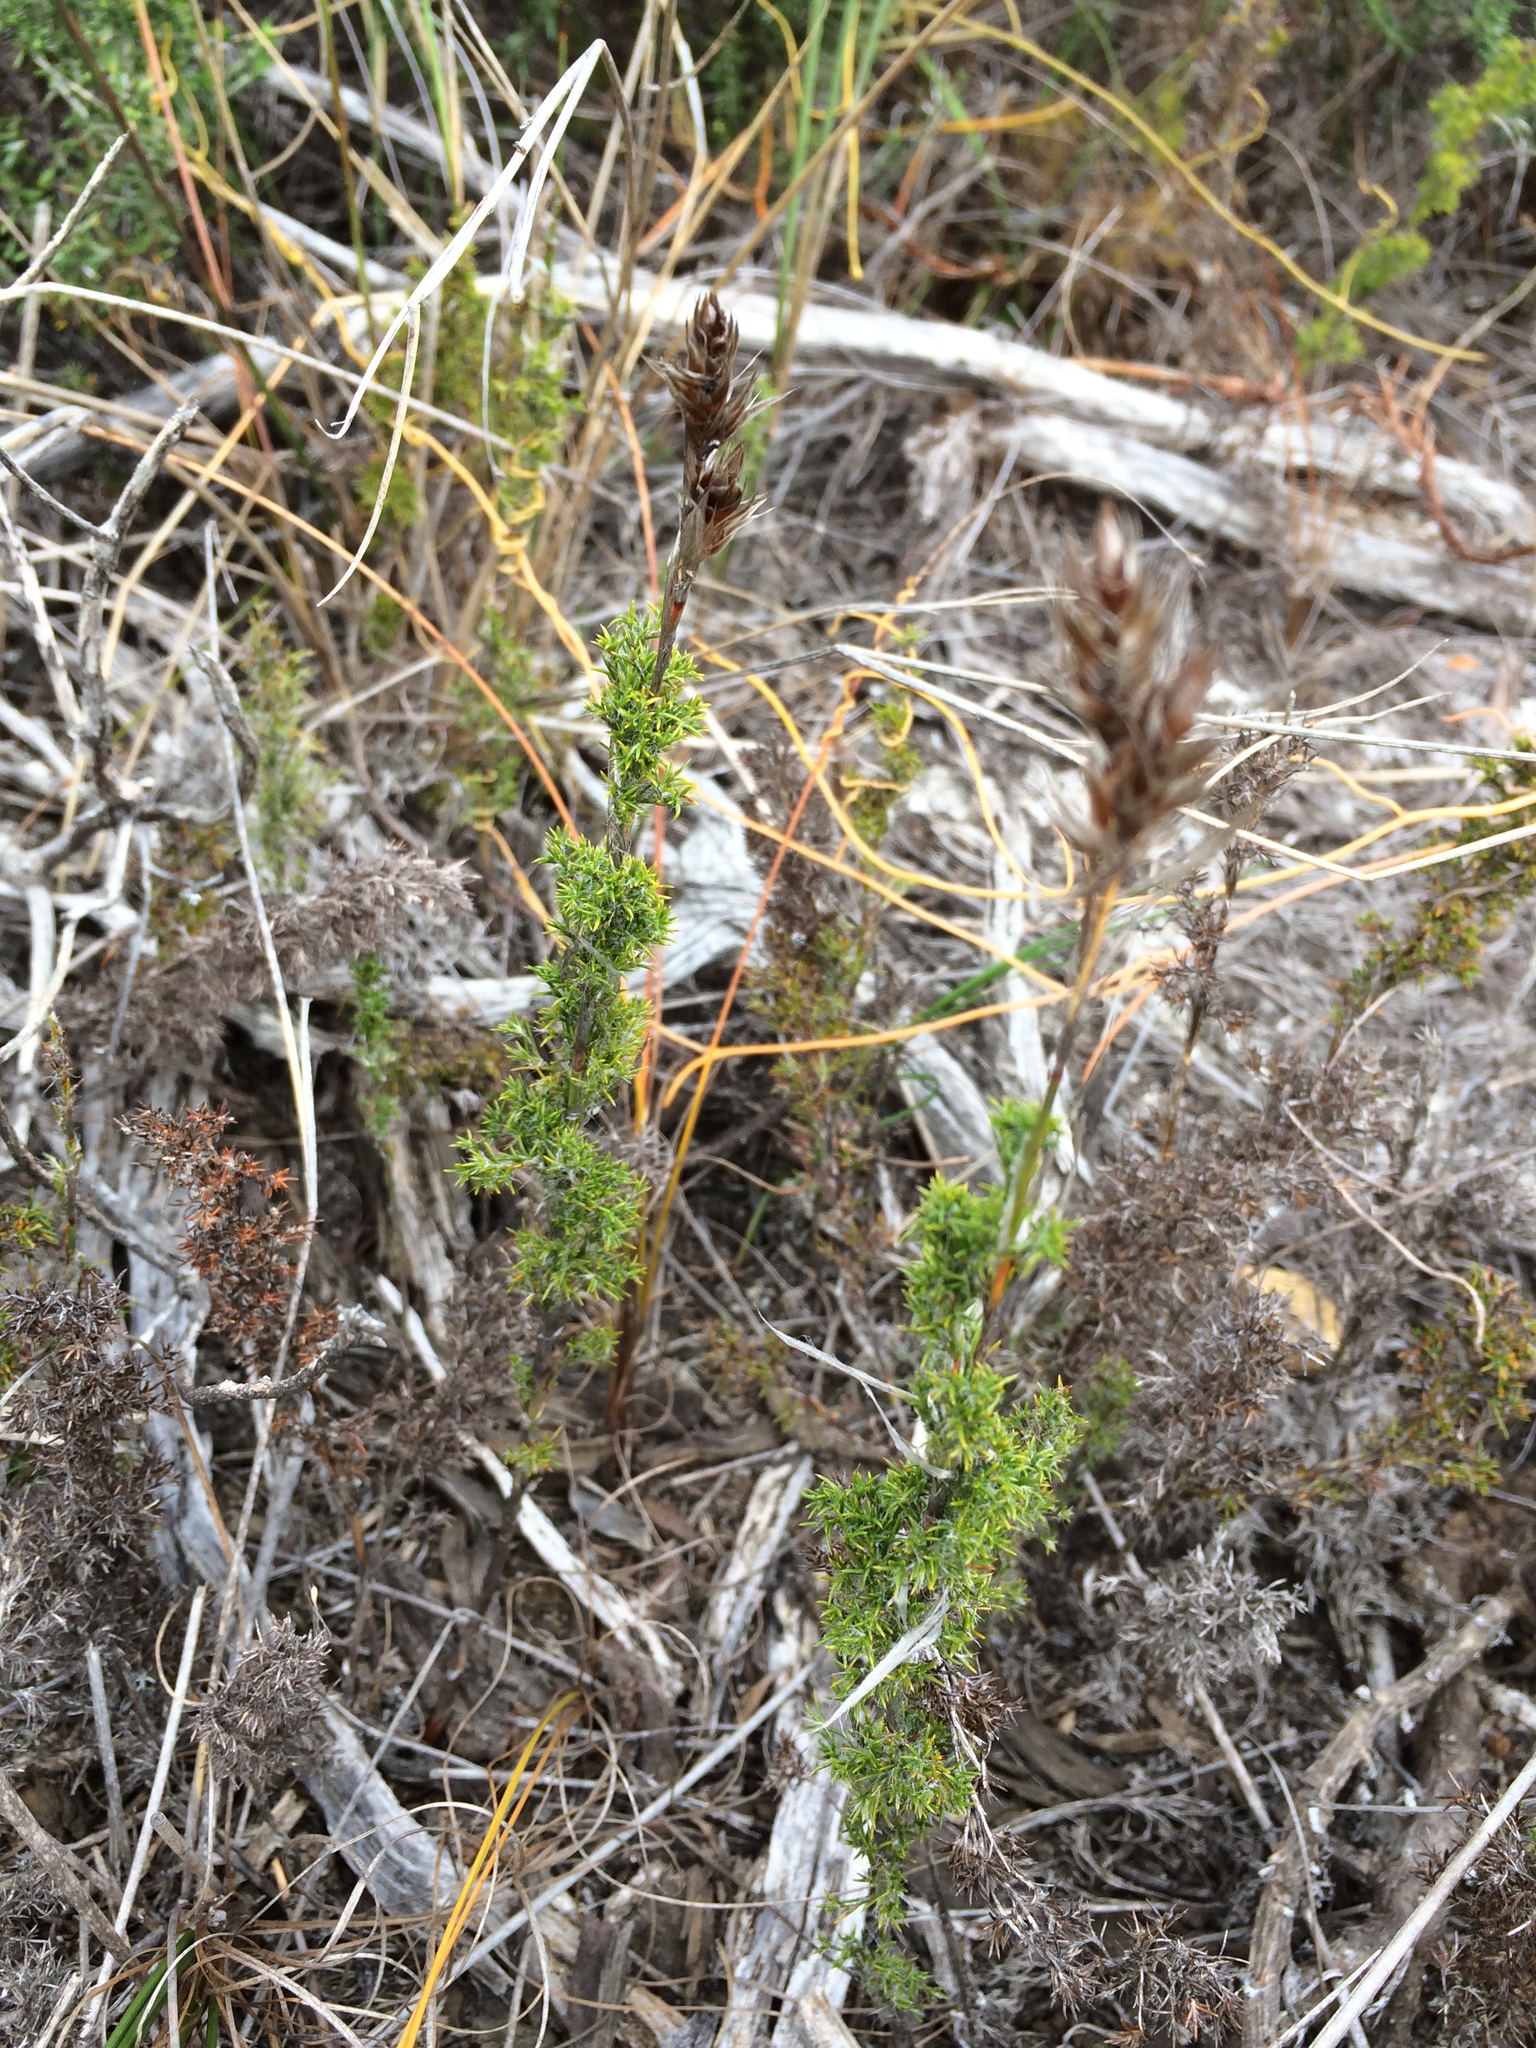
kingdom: Plantae
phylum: Tracheophyta
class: Liliopsida
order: Poales
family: Restionaceae
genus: Thamnochortus
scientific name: Thamnochortus fruticosus
